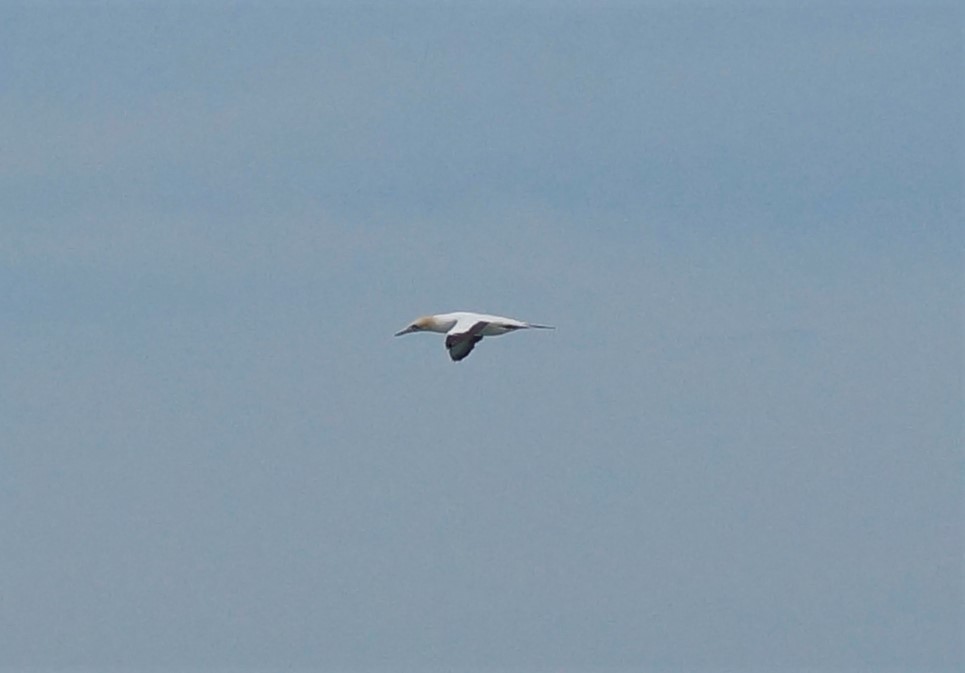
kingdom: Animalia
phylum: Chordata
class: Aves
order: Suliformes
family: Sulidae
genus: Morus
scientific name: Morus serrator
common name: Australasian gannet
